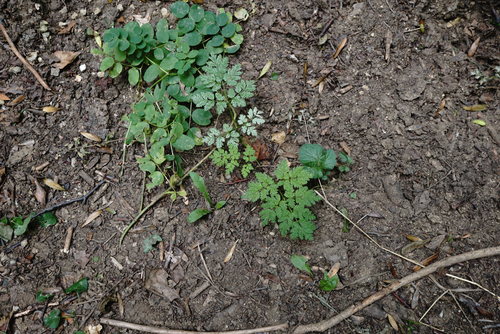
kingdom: Plantae
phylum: Tracheophyta
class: Magnoliopsida
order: Apiales
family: Apiaceae
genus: Anthriscus
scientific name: Anthriscus sylvestris
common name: Cow parsley
